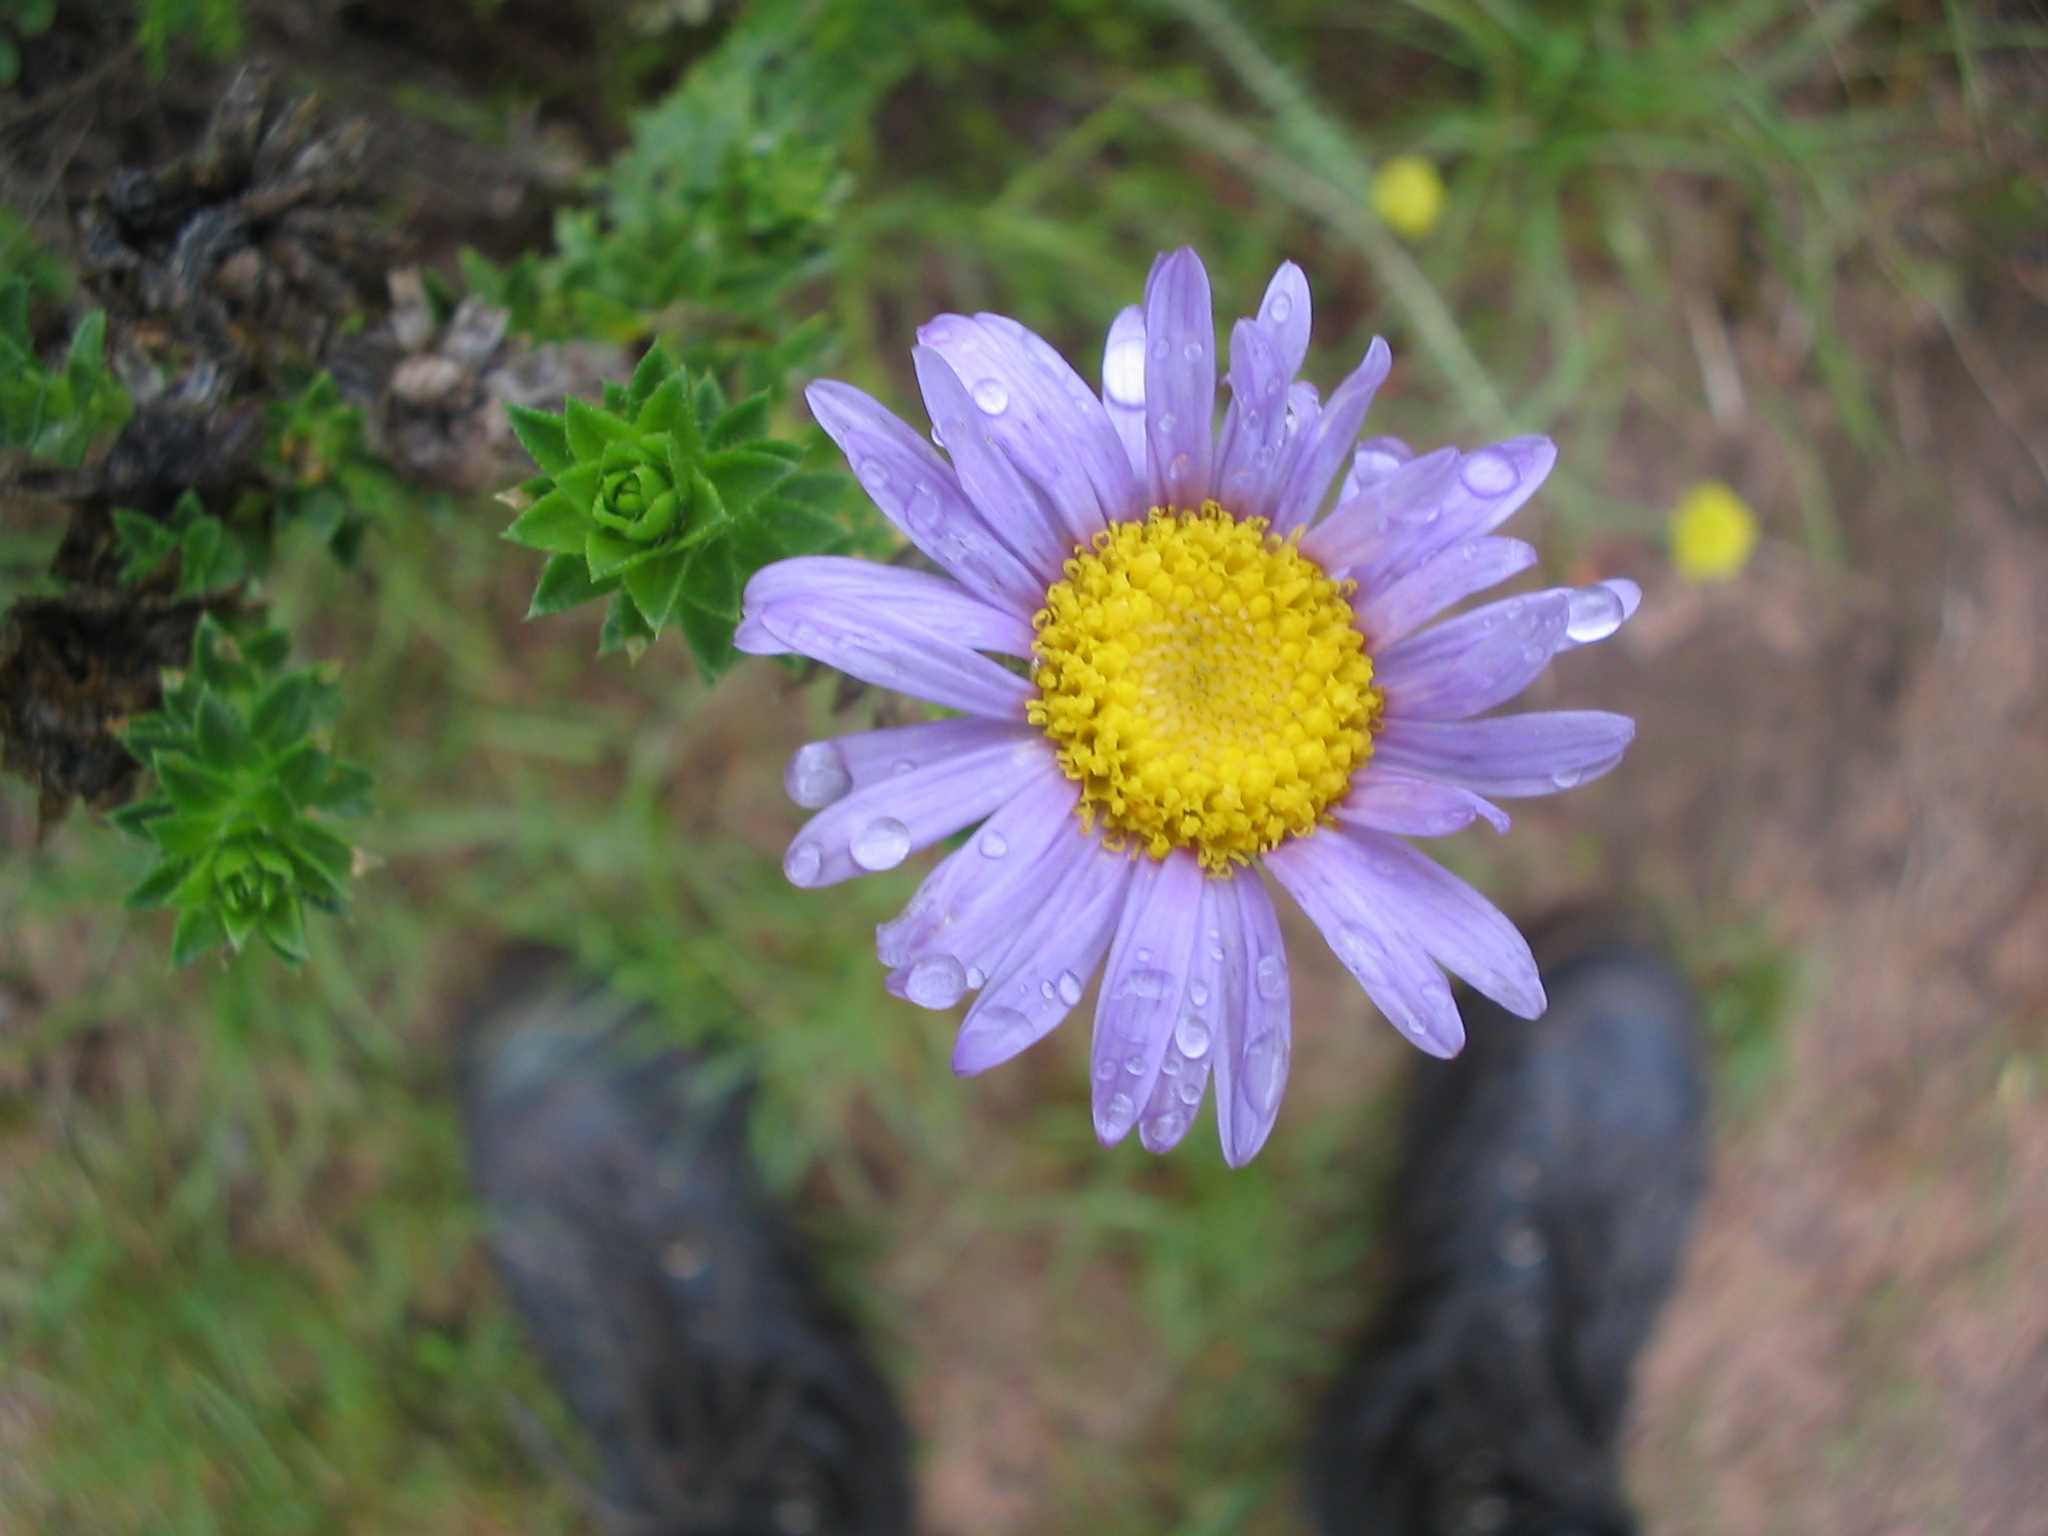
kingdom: Plantae
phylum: Tracheophyta
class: Magnoliopsida
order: Asterales
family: Asteraceae
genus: Felicia
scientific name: Felicia echinata
